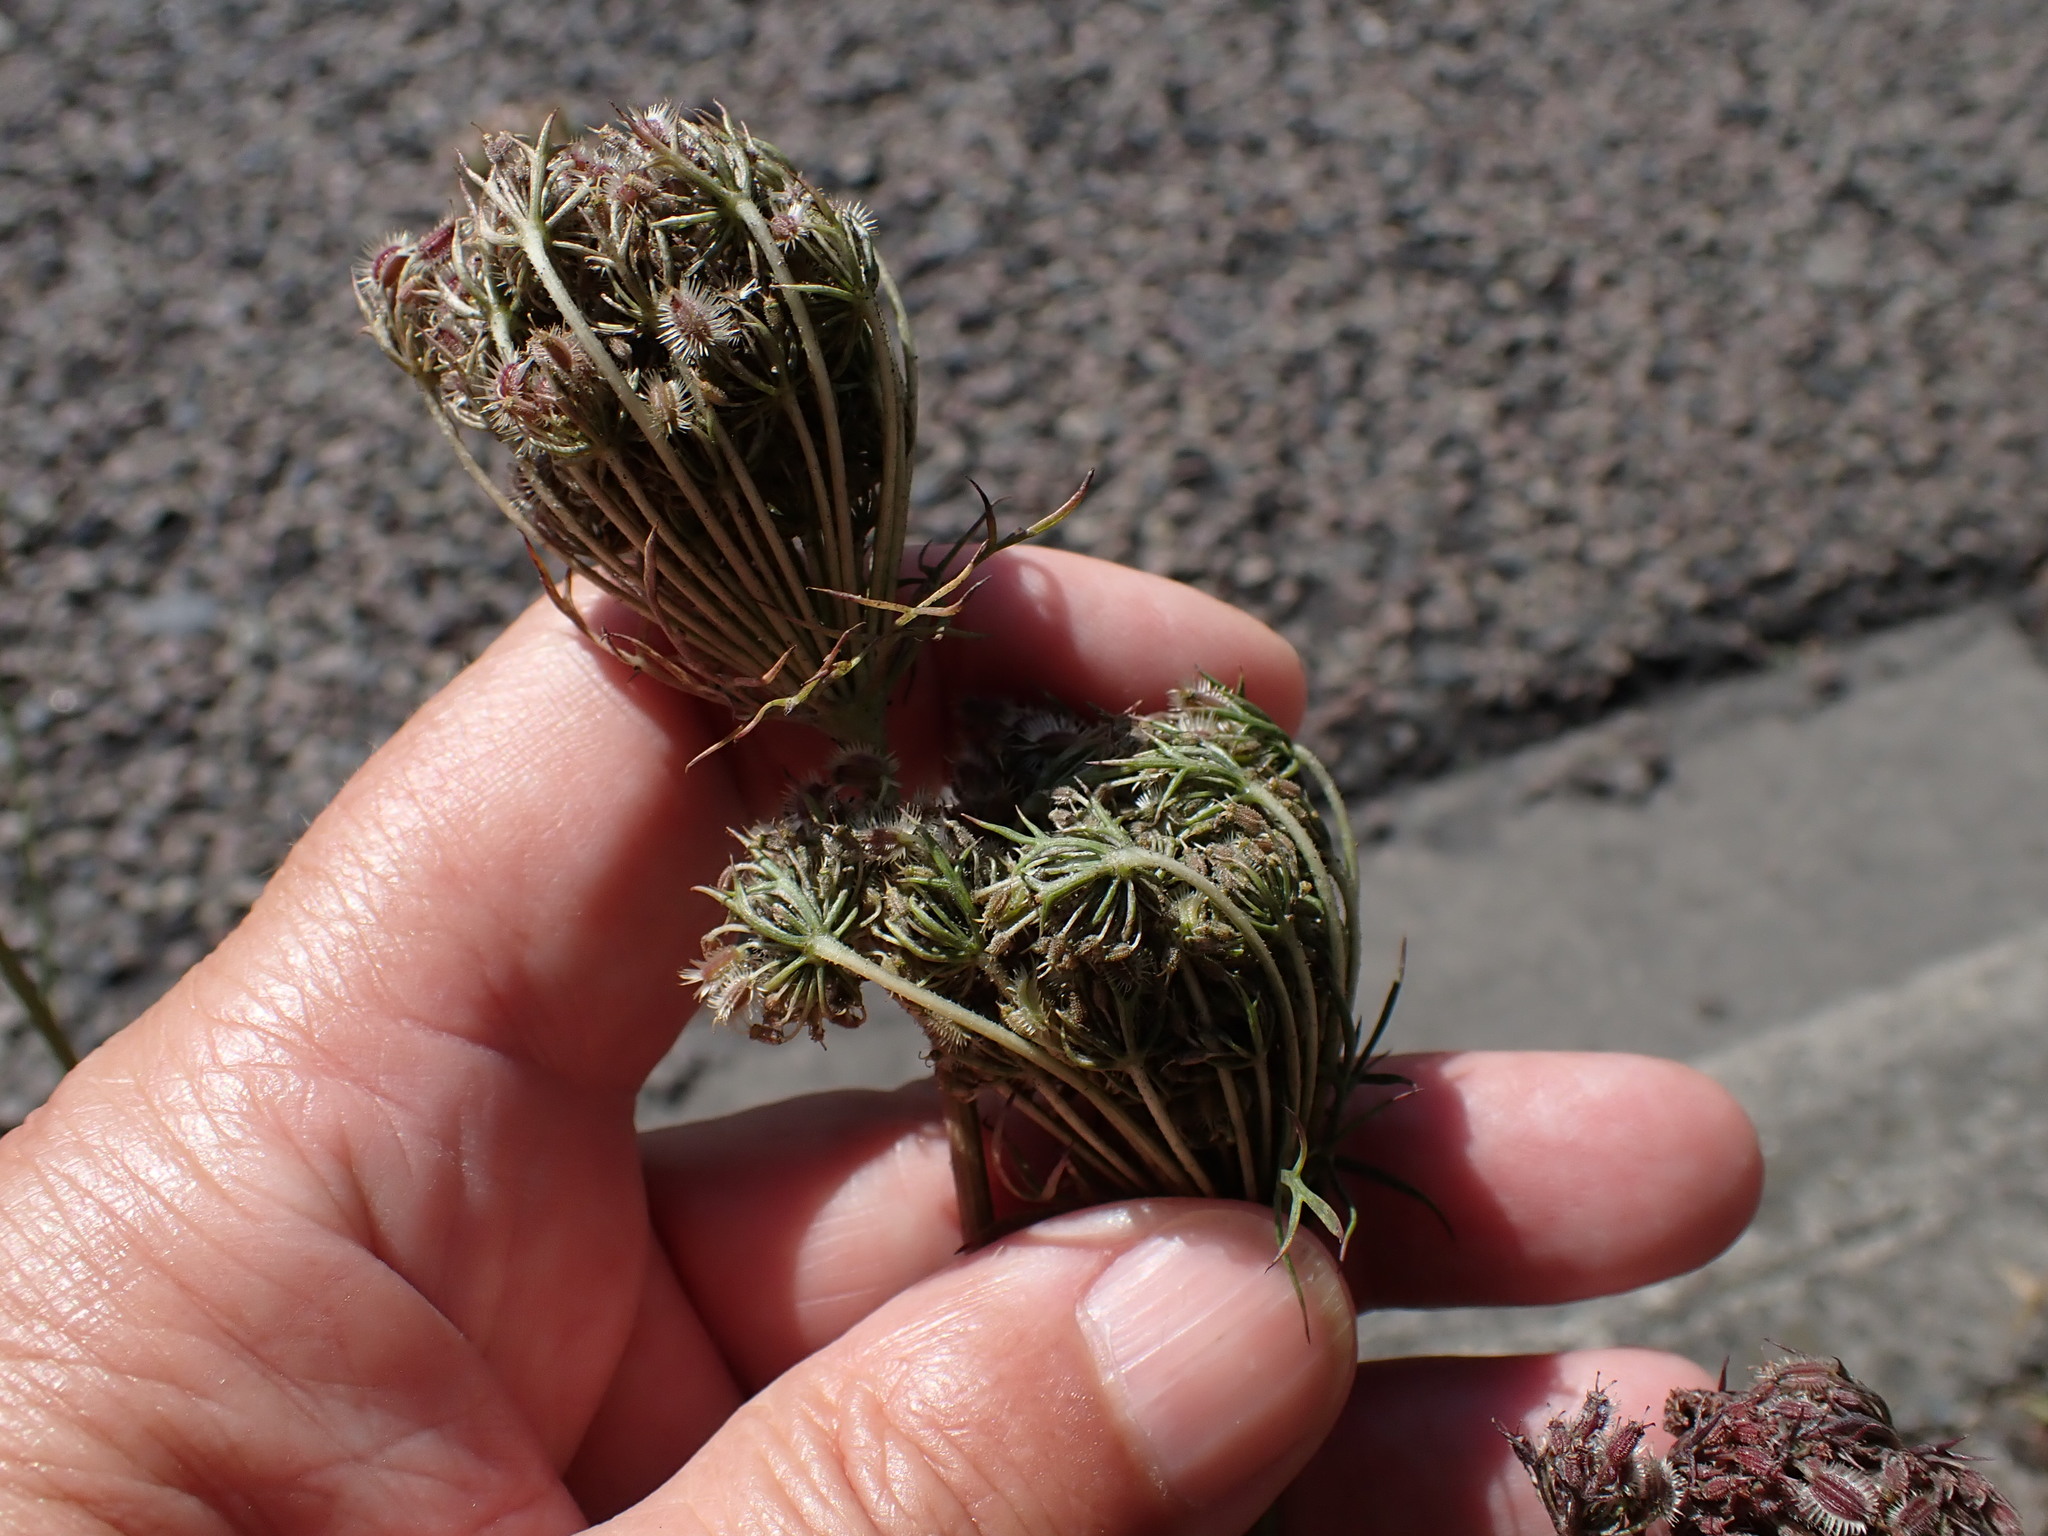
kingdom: Plantae
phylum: Tracheophyta
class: Magnoliopsida
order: Apiales
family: Apiaceae
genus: Daucus
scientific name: Daucus carota
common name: Wild carrot
